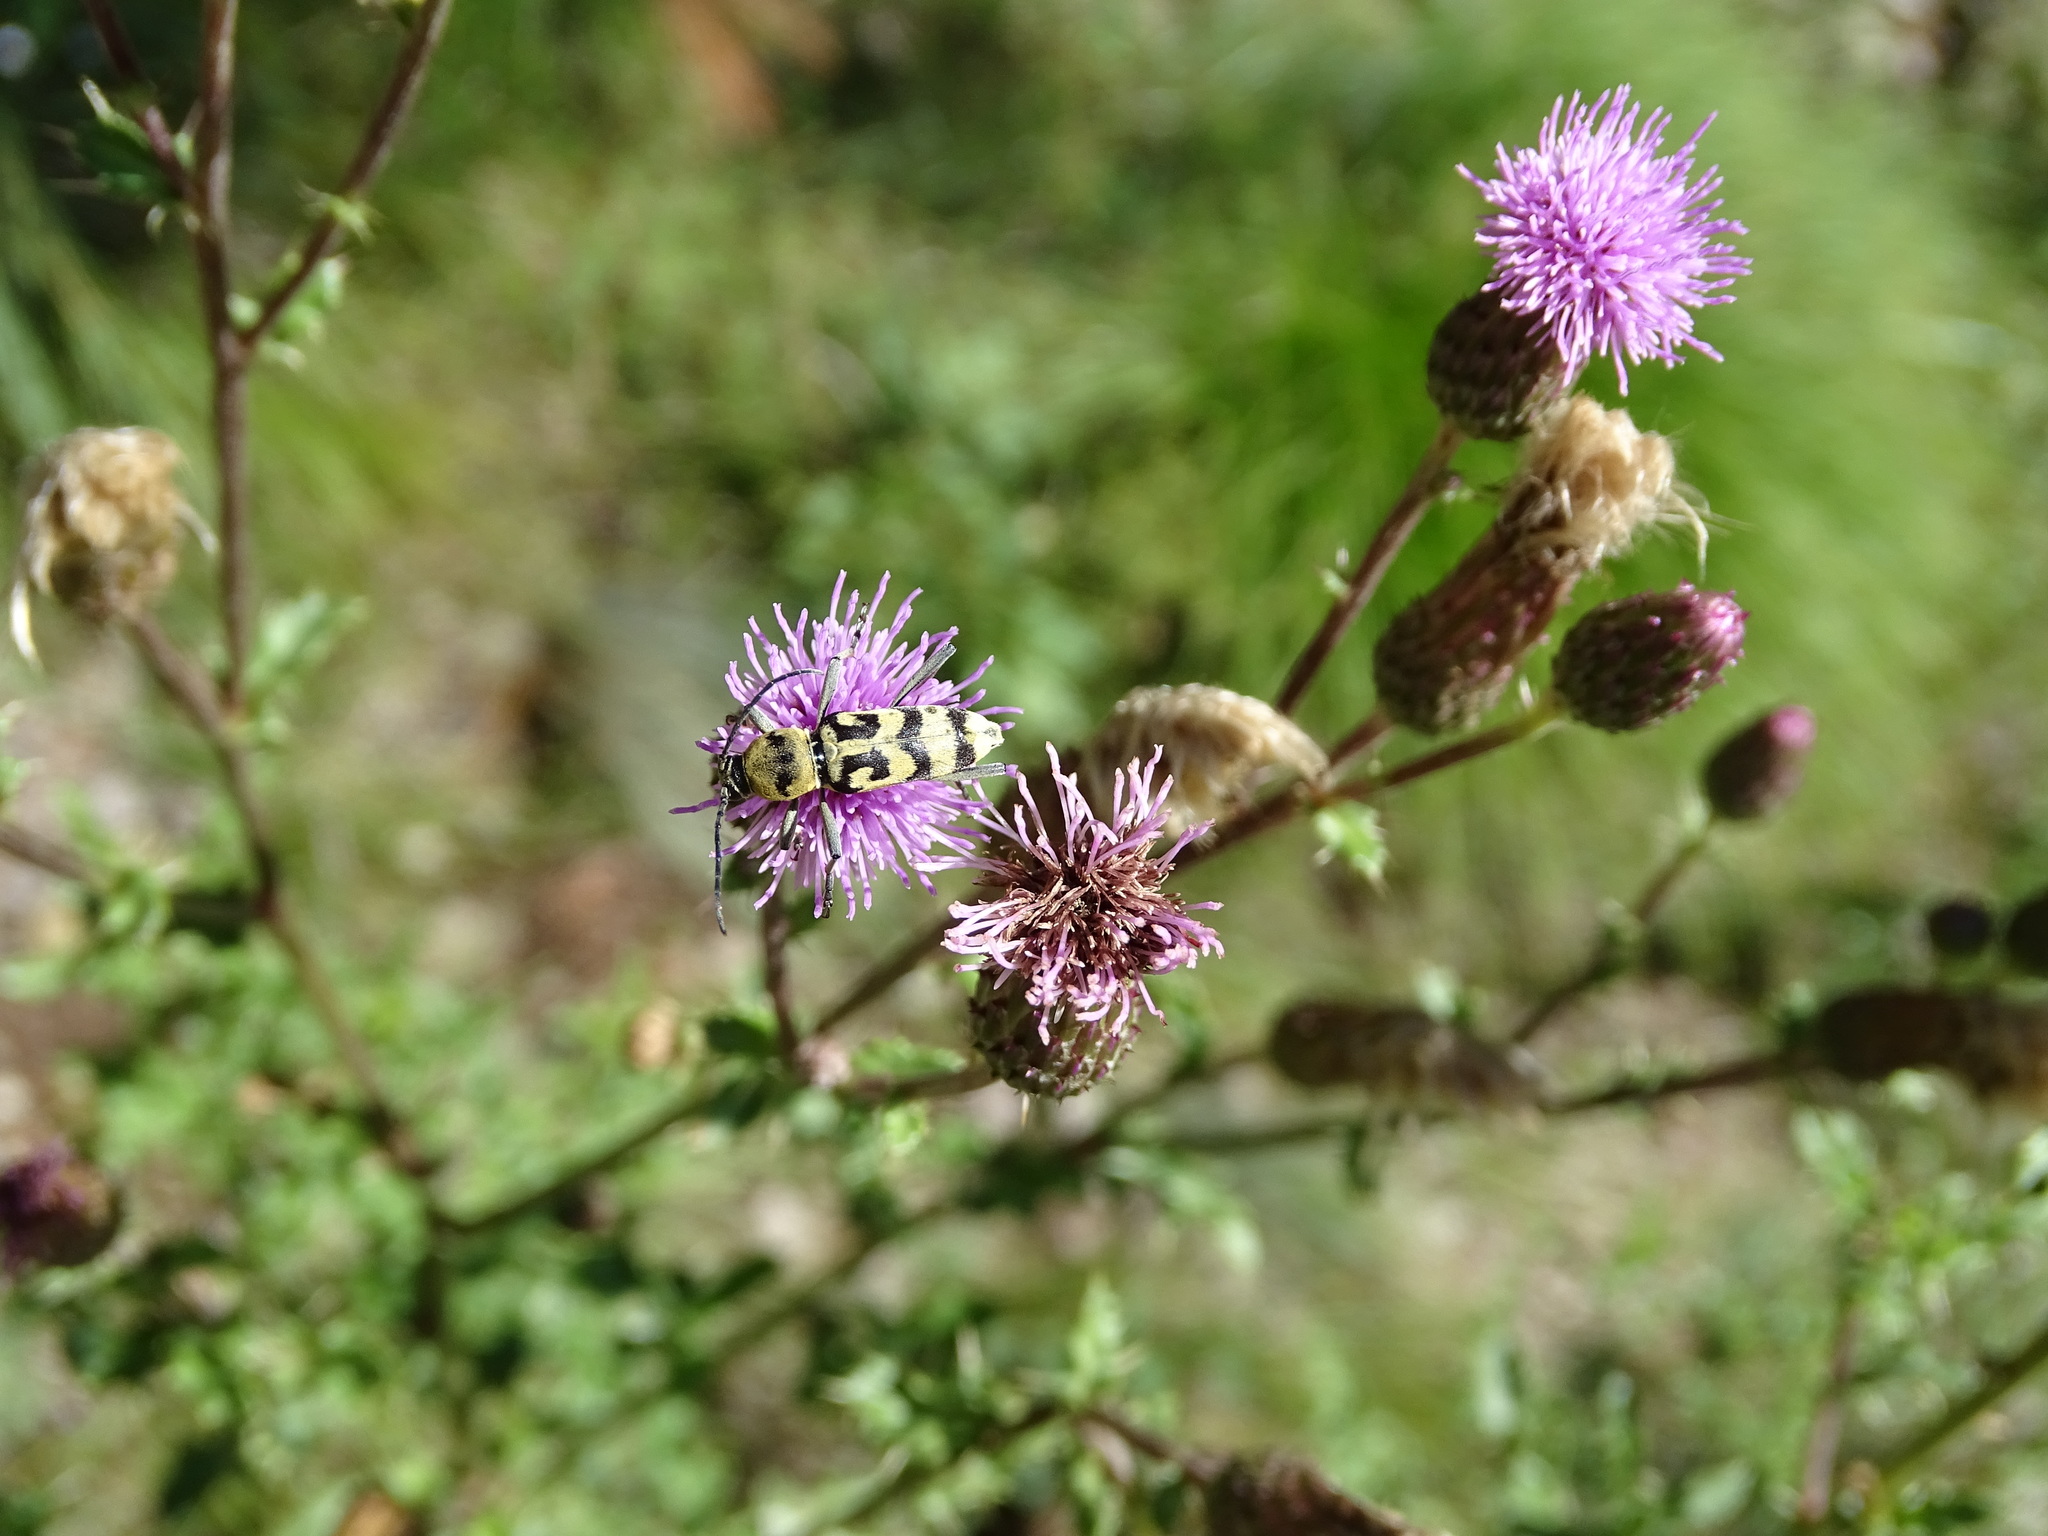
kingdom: Animalia
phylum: Arthropoda
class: Insecta
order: Coleoptera
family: Cerambycidae
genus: Chlorophorus
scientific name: Chlorophorus varius
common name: Grape wood borer
